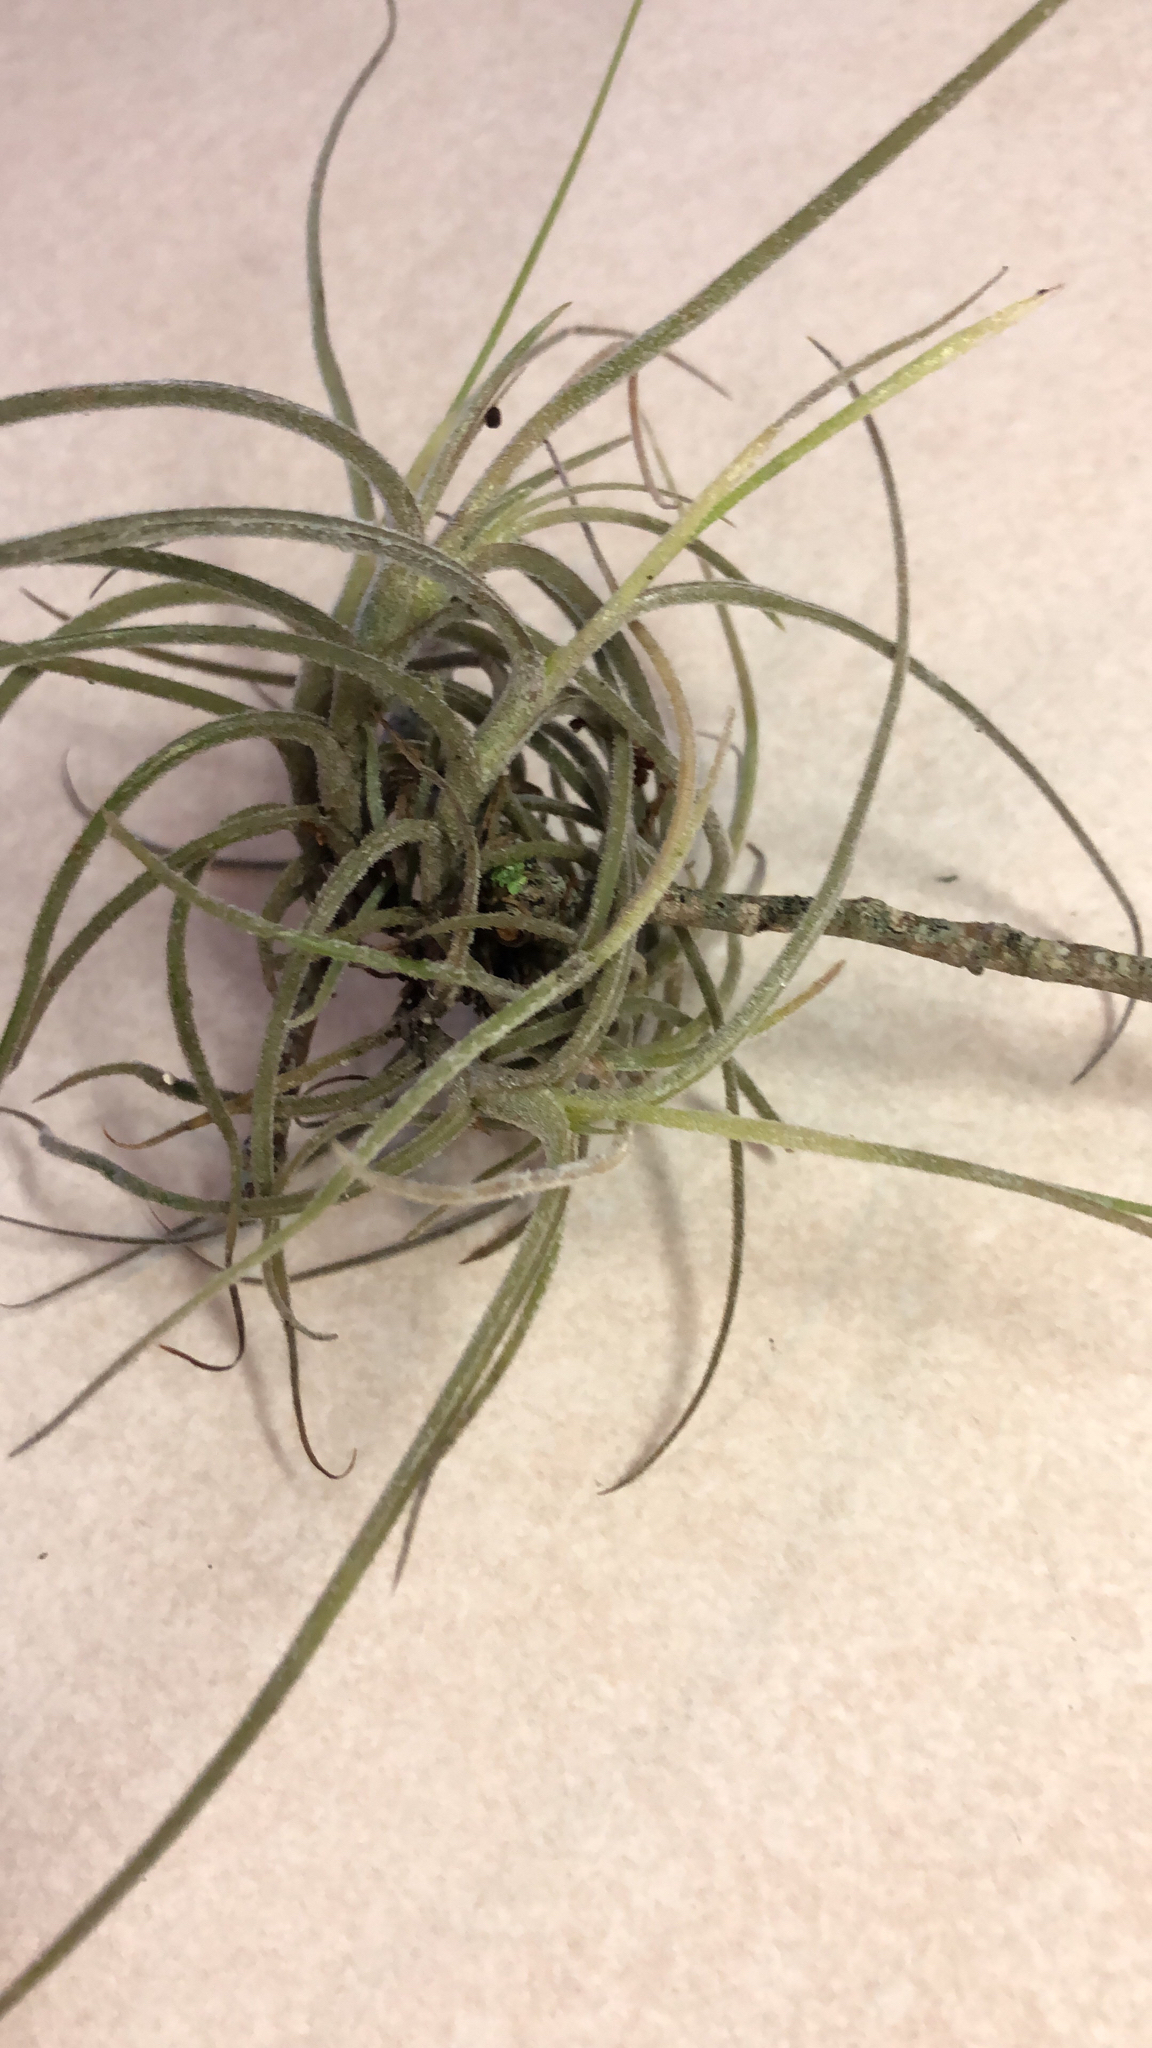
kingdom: Plantae
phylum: Tracheophyta
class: Liliopsida
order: Poales
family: Bromeliaceae
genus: Tillandsia
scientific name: Tillandsia recurvata
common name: Small ballmoss
